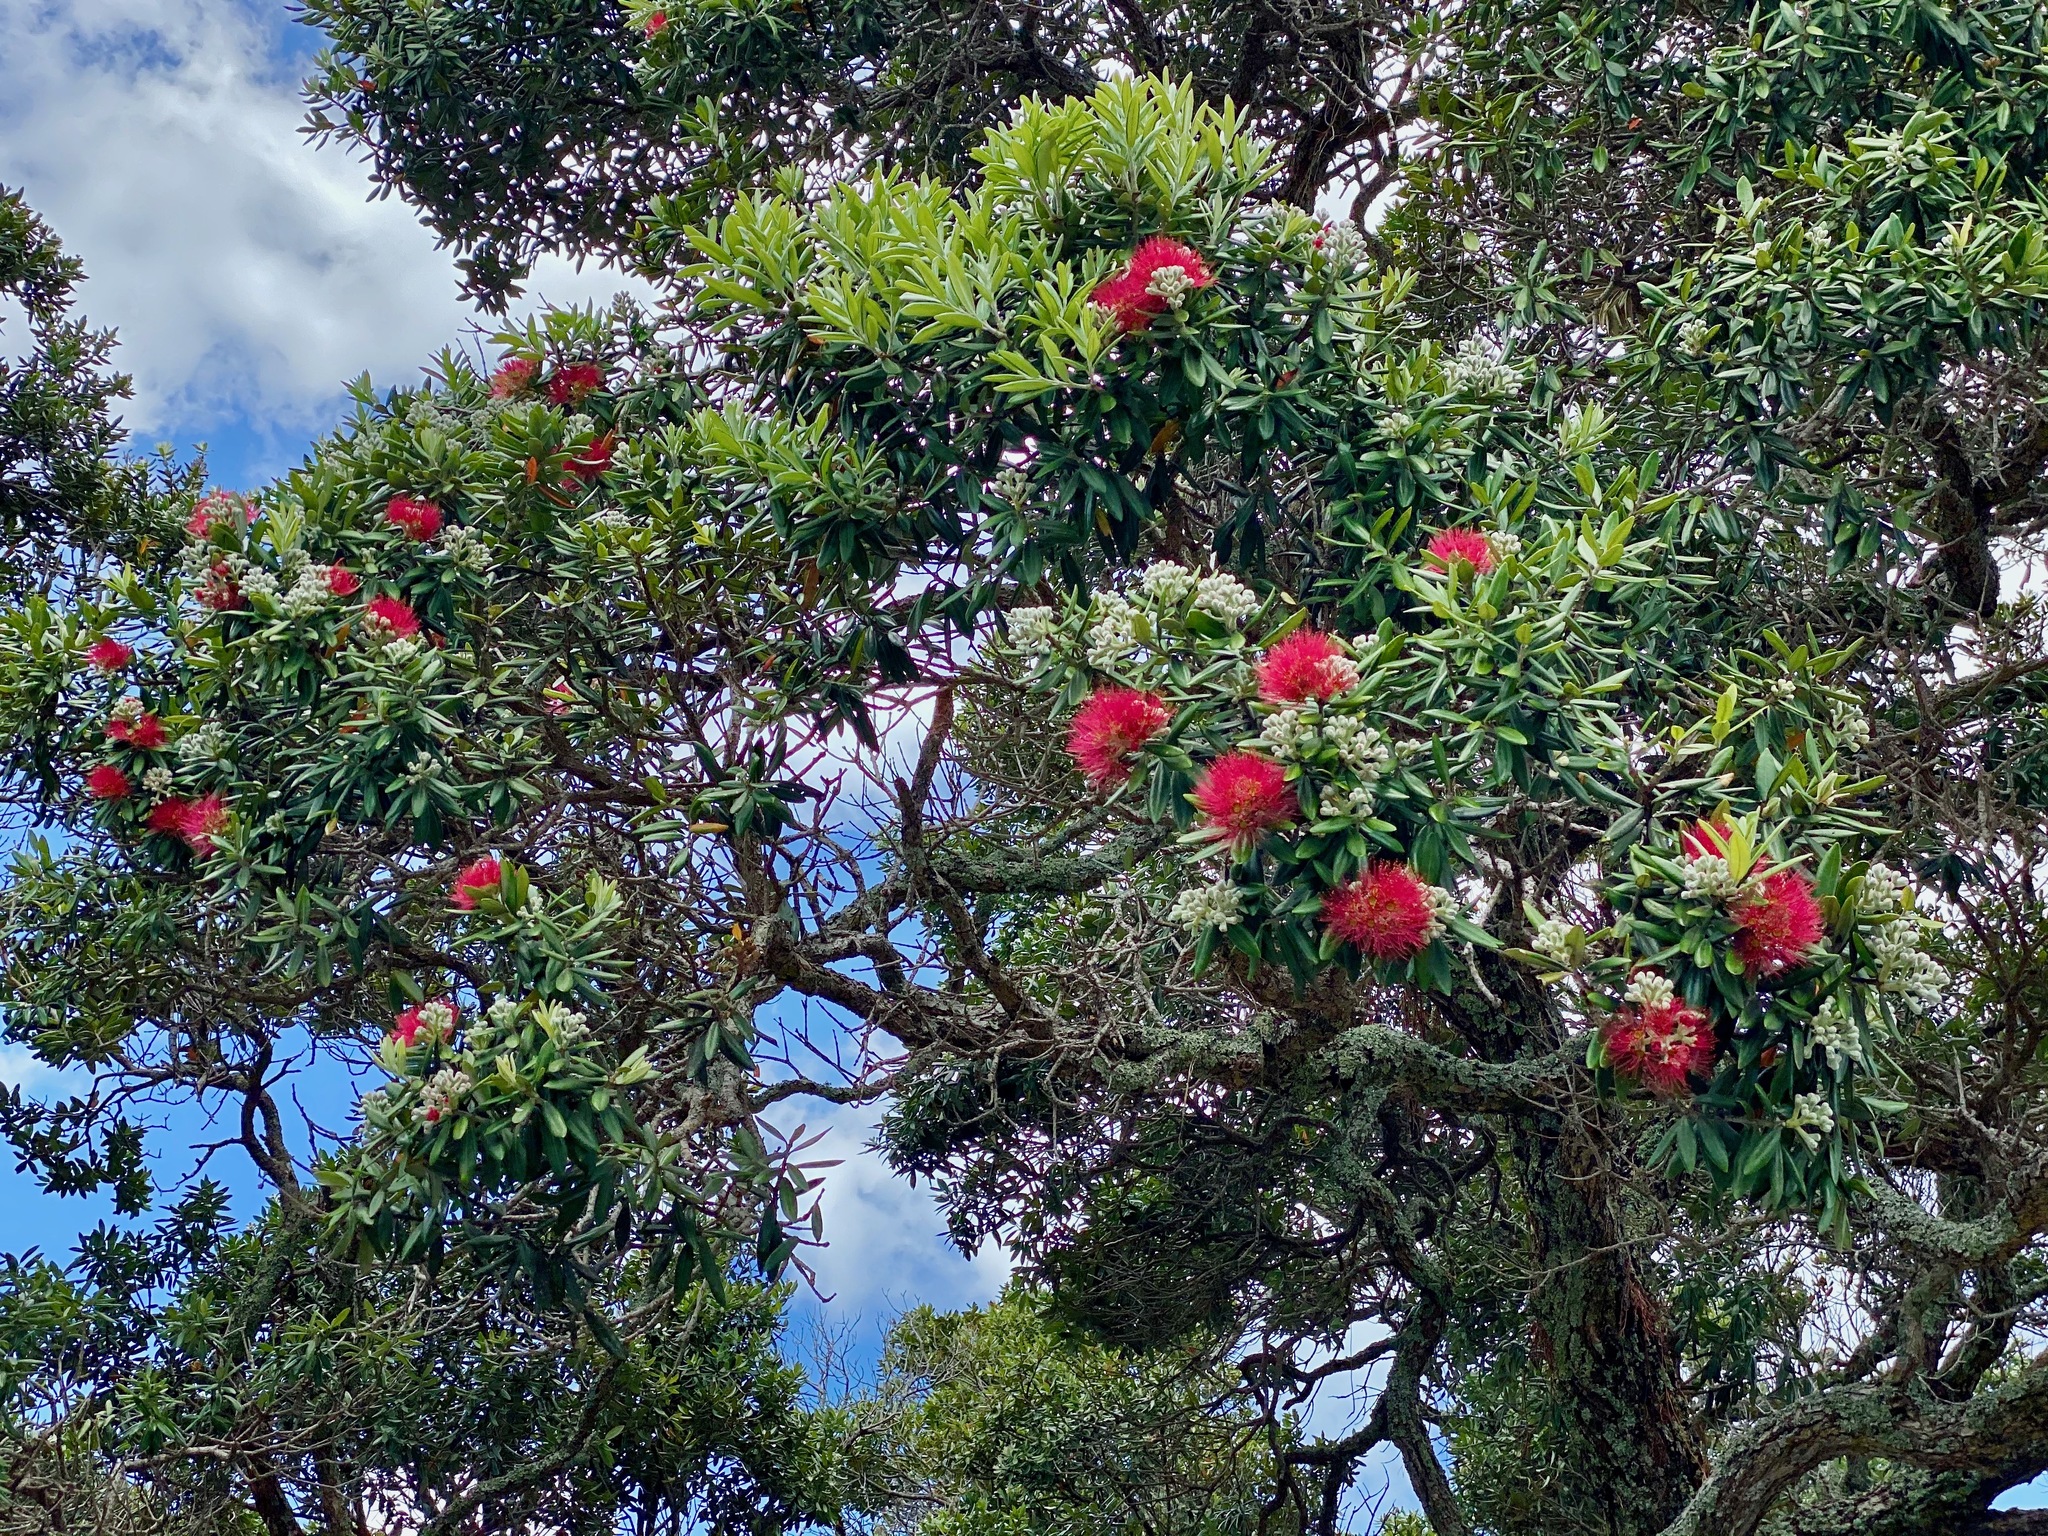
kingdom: Plantae
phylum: Tracheophyta
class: Magnoliopsida
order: Myrtales
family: Myrtaceae
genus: Metrosideros
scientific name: Metrosideros excelsa
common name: New zealand christmastree
